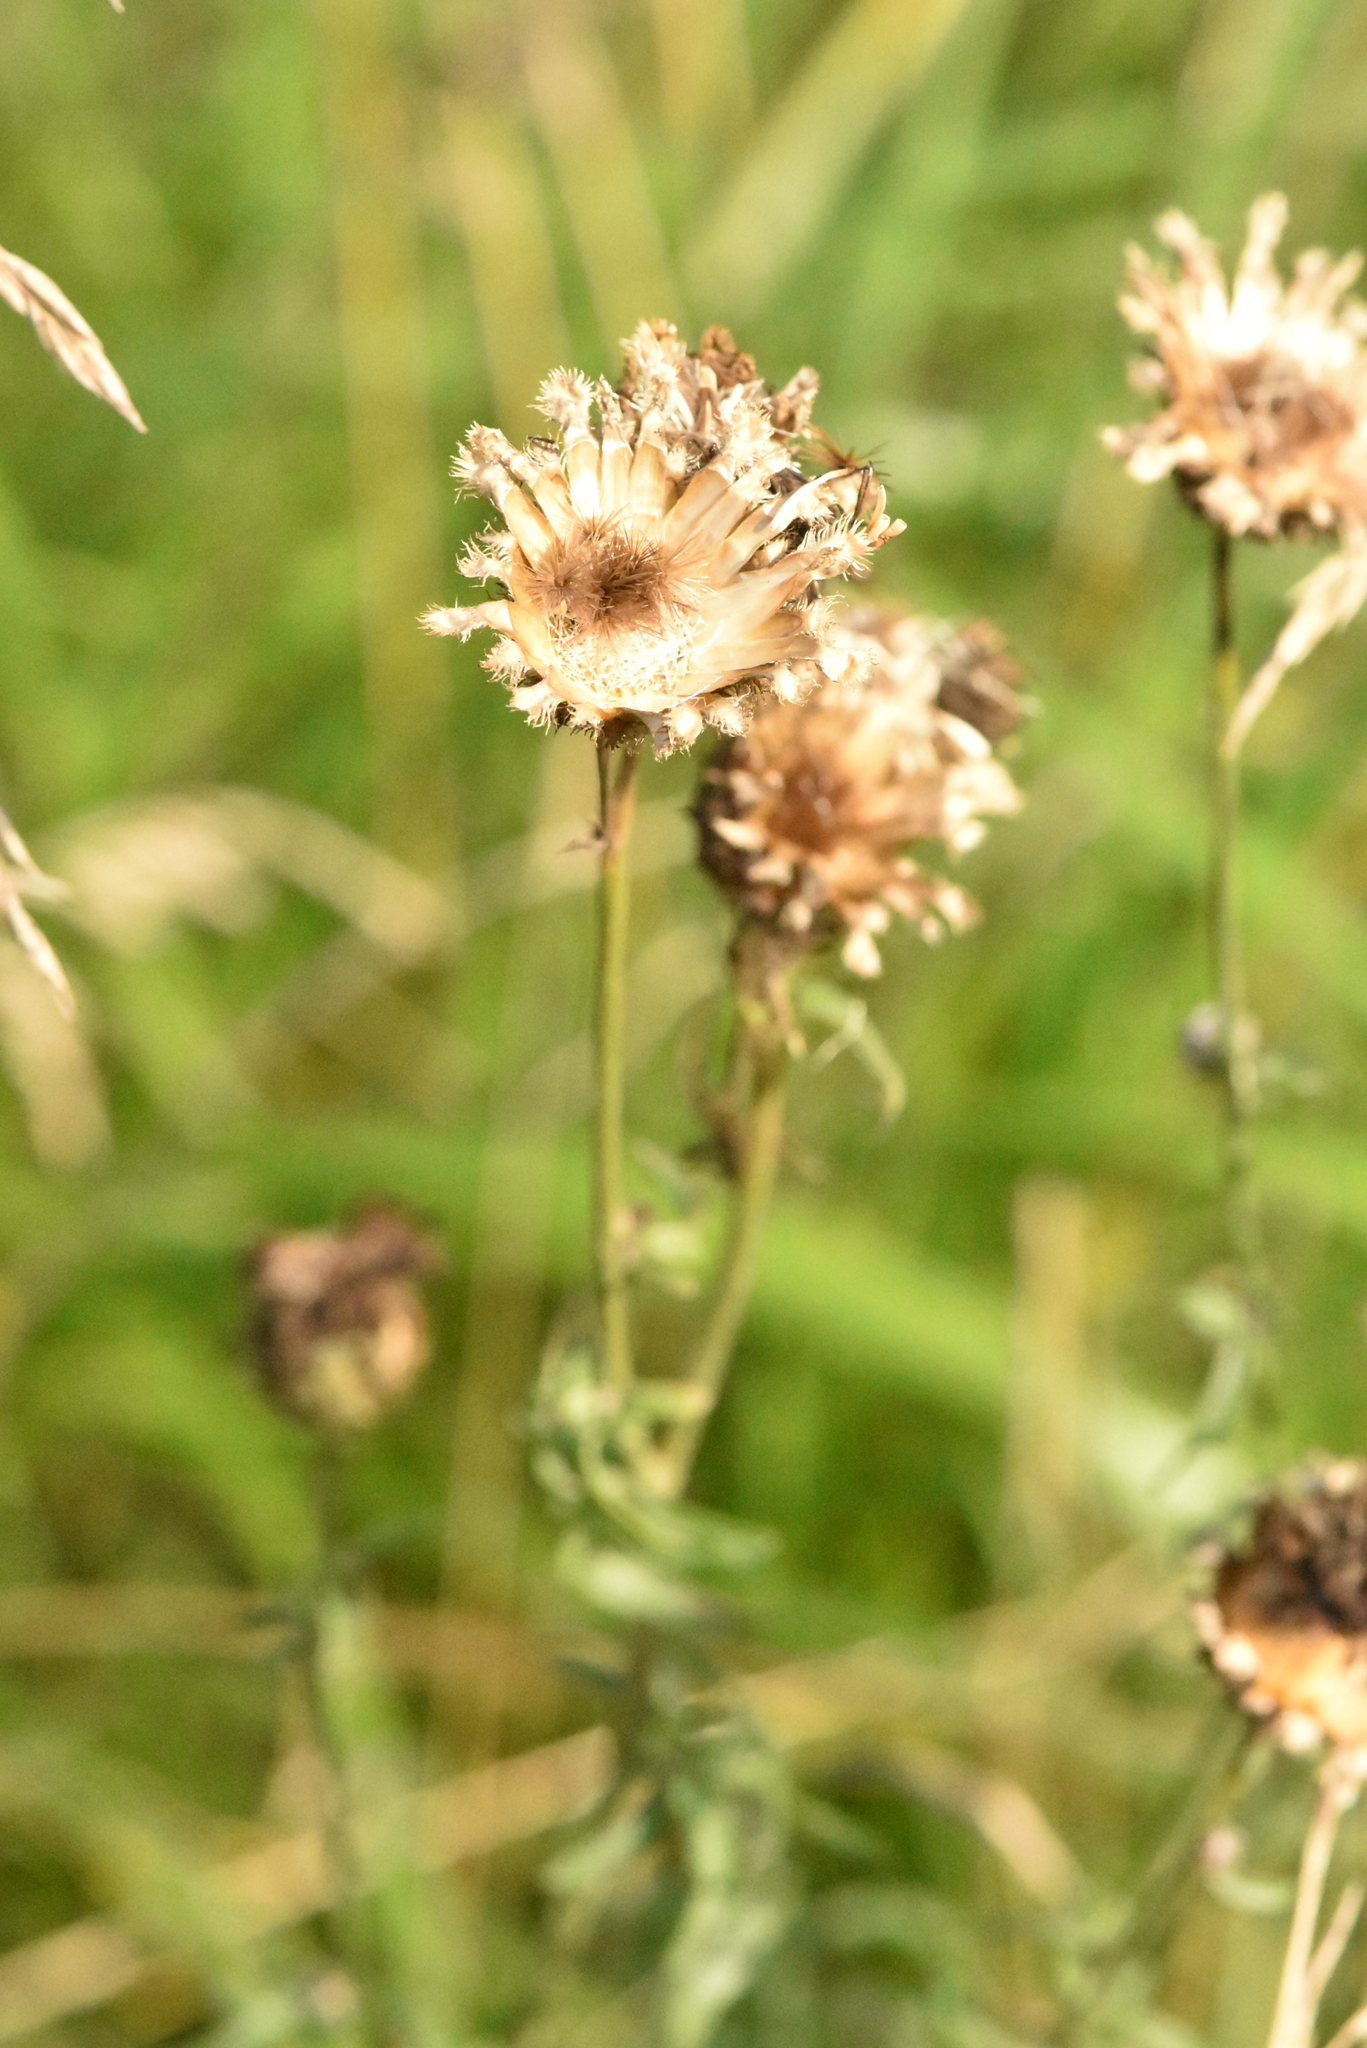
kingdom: Plantae
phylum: Tracheophyta
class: Magnoliopsida
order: Asterales
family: Asteraceae
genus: Centaurea
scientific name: Centaurea scabiosa
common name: Greater knapweed
